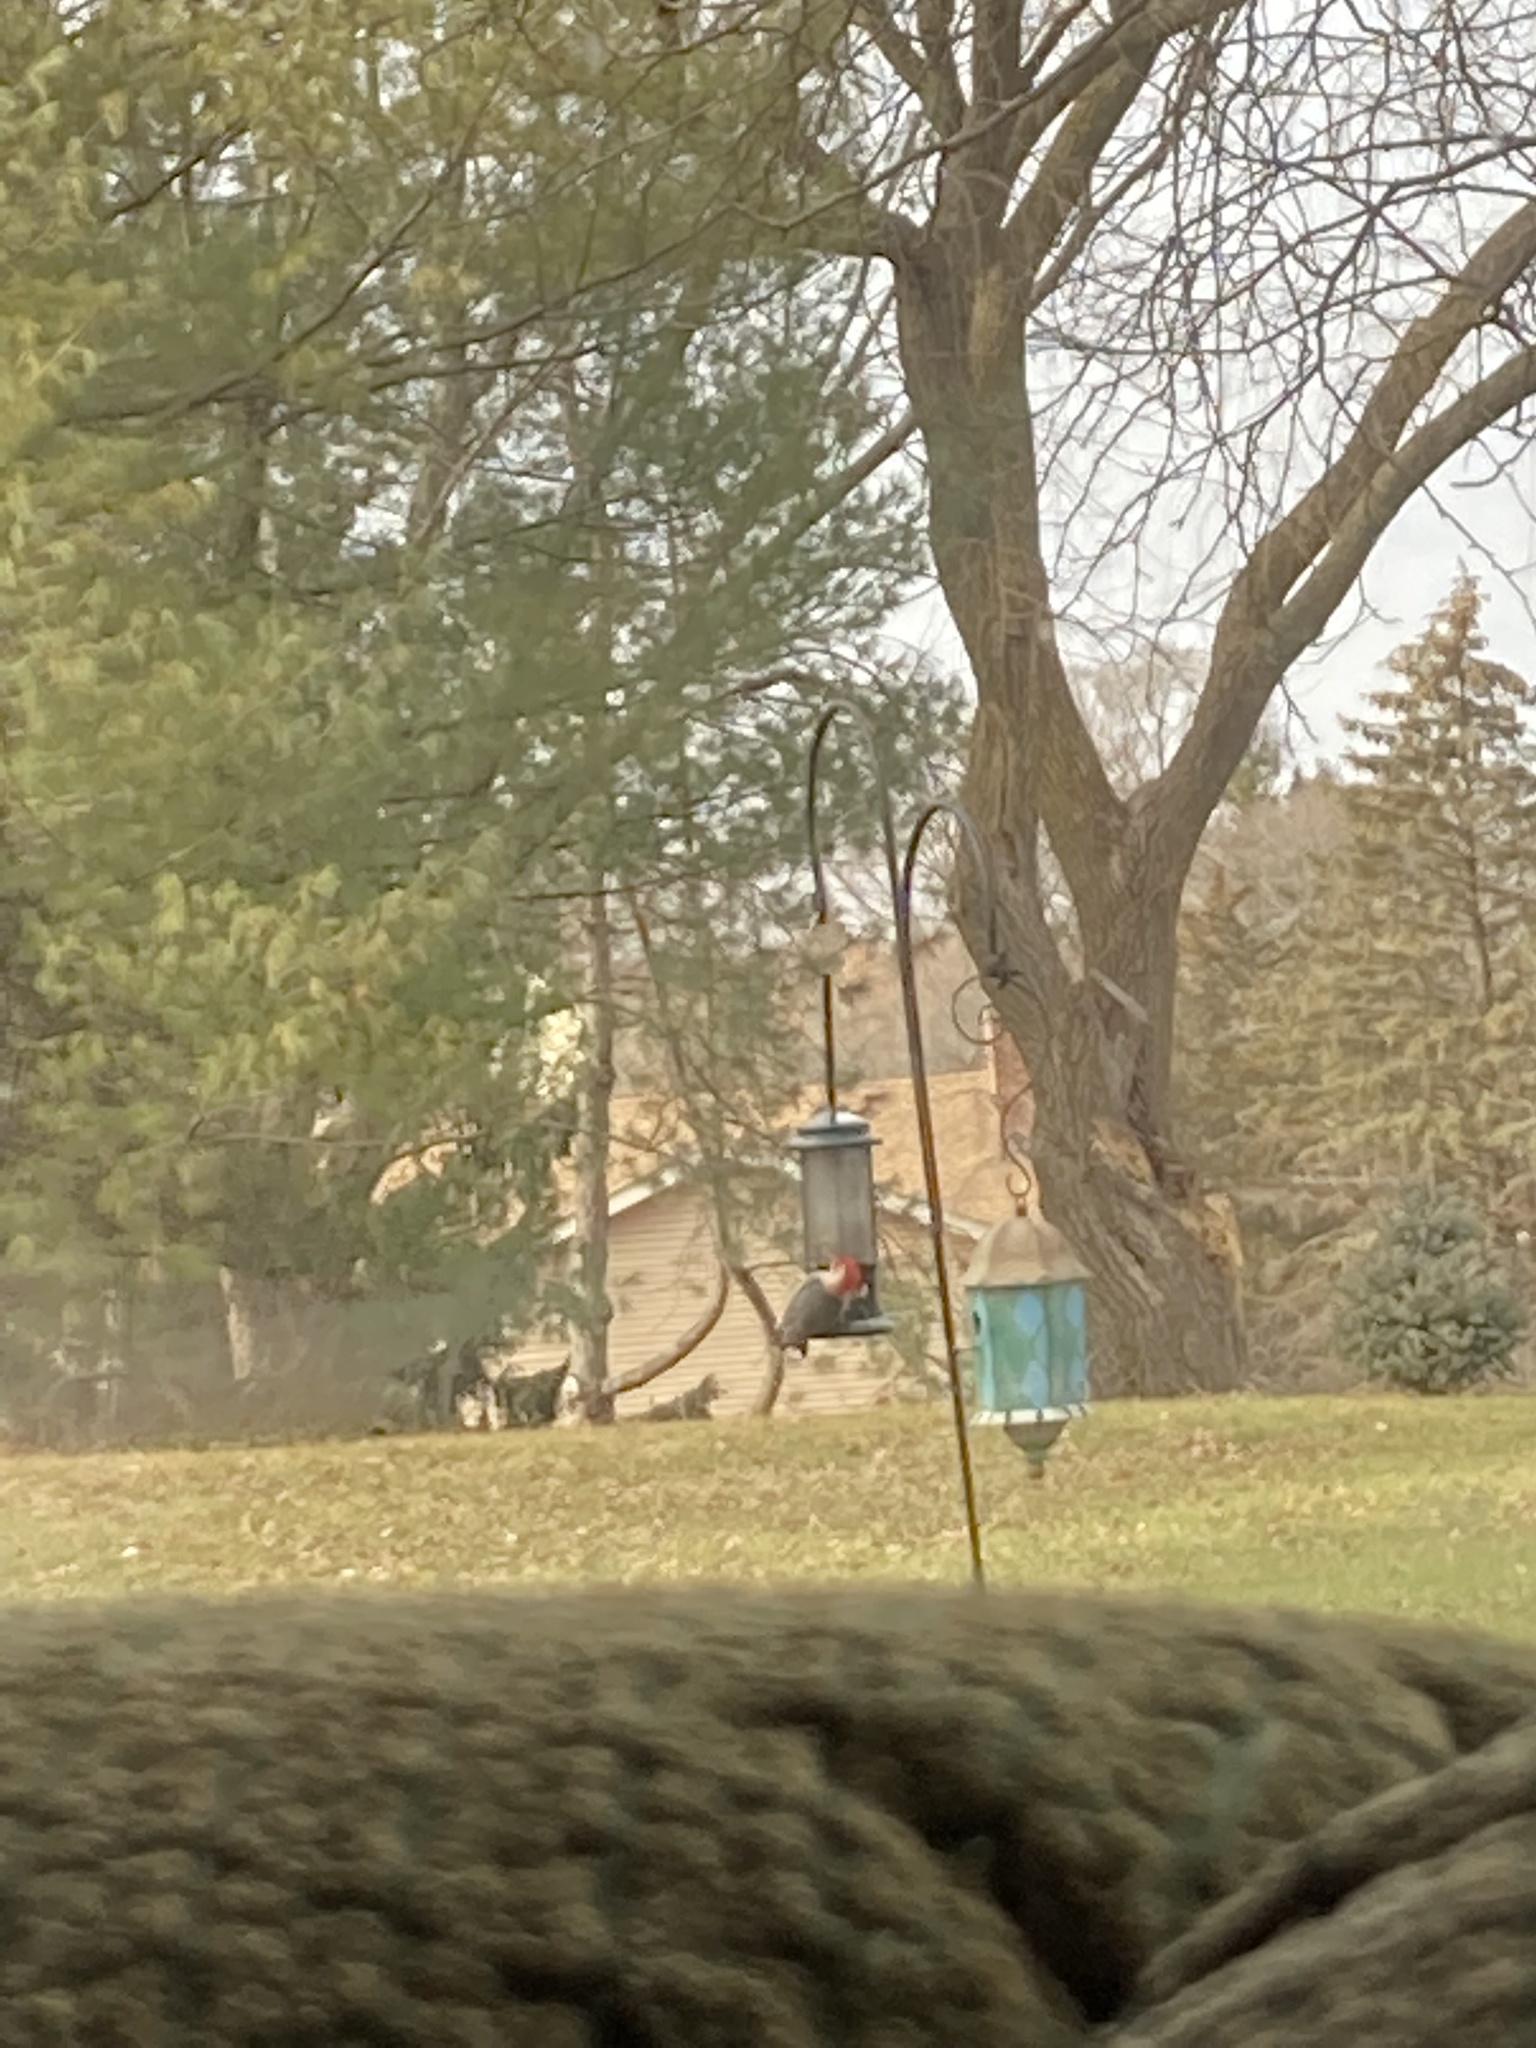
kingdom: Animalia
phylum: Chordata
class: Aves
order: Piciformes
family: Picidae
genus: Melanerpes
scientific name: Melanerpes carolinus
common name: Red-bellied woodpecker
